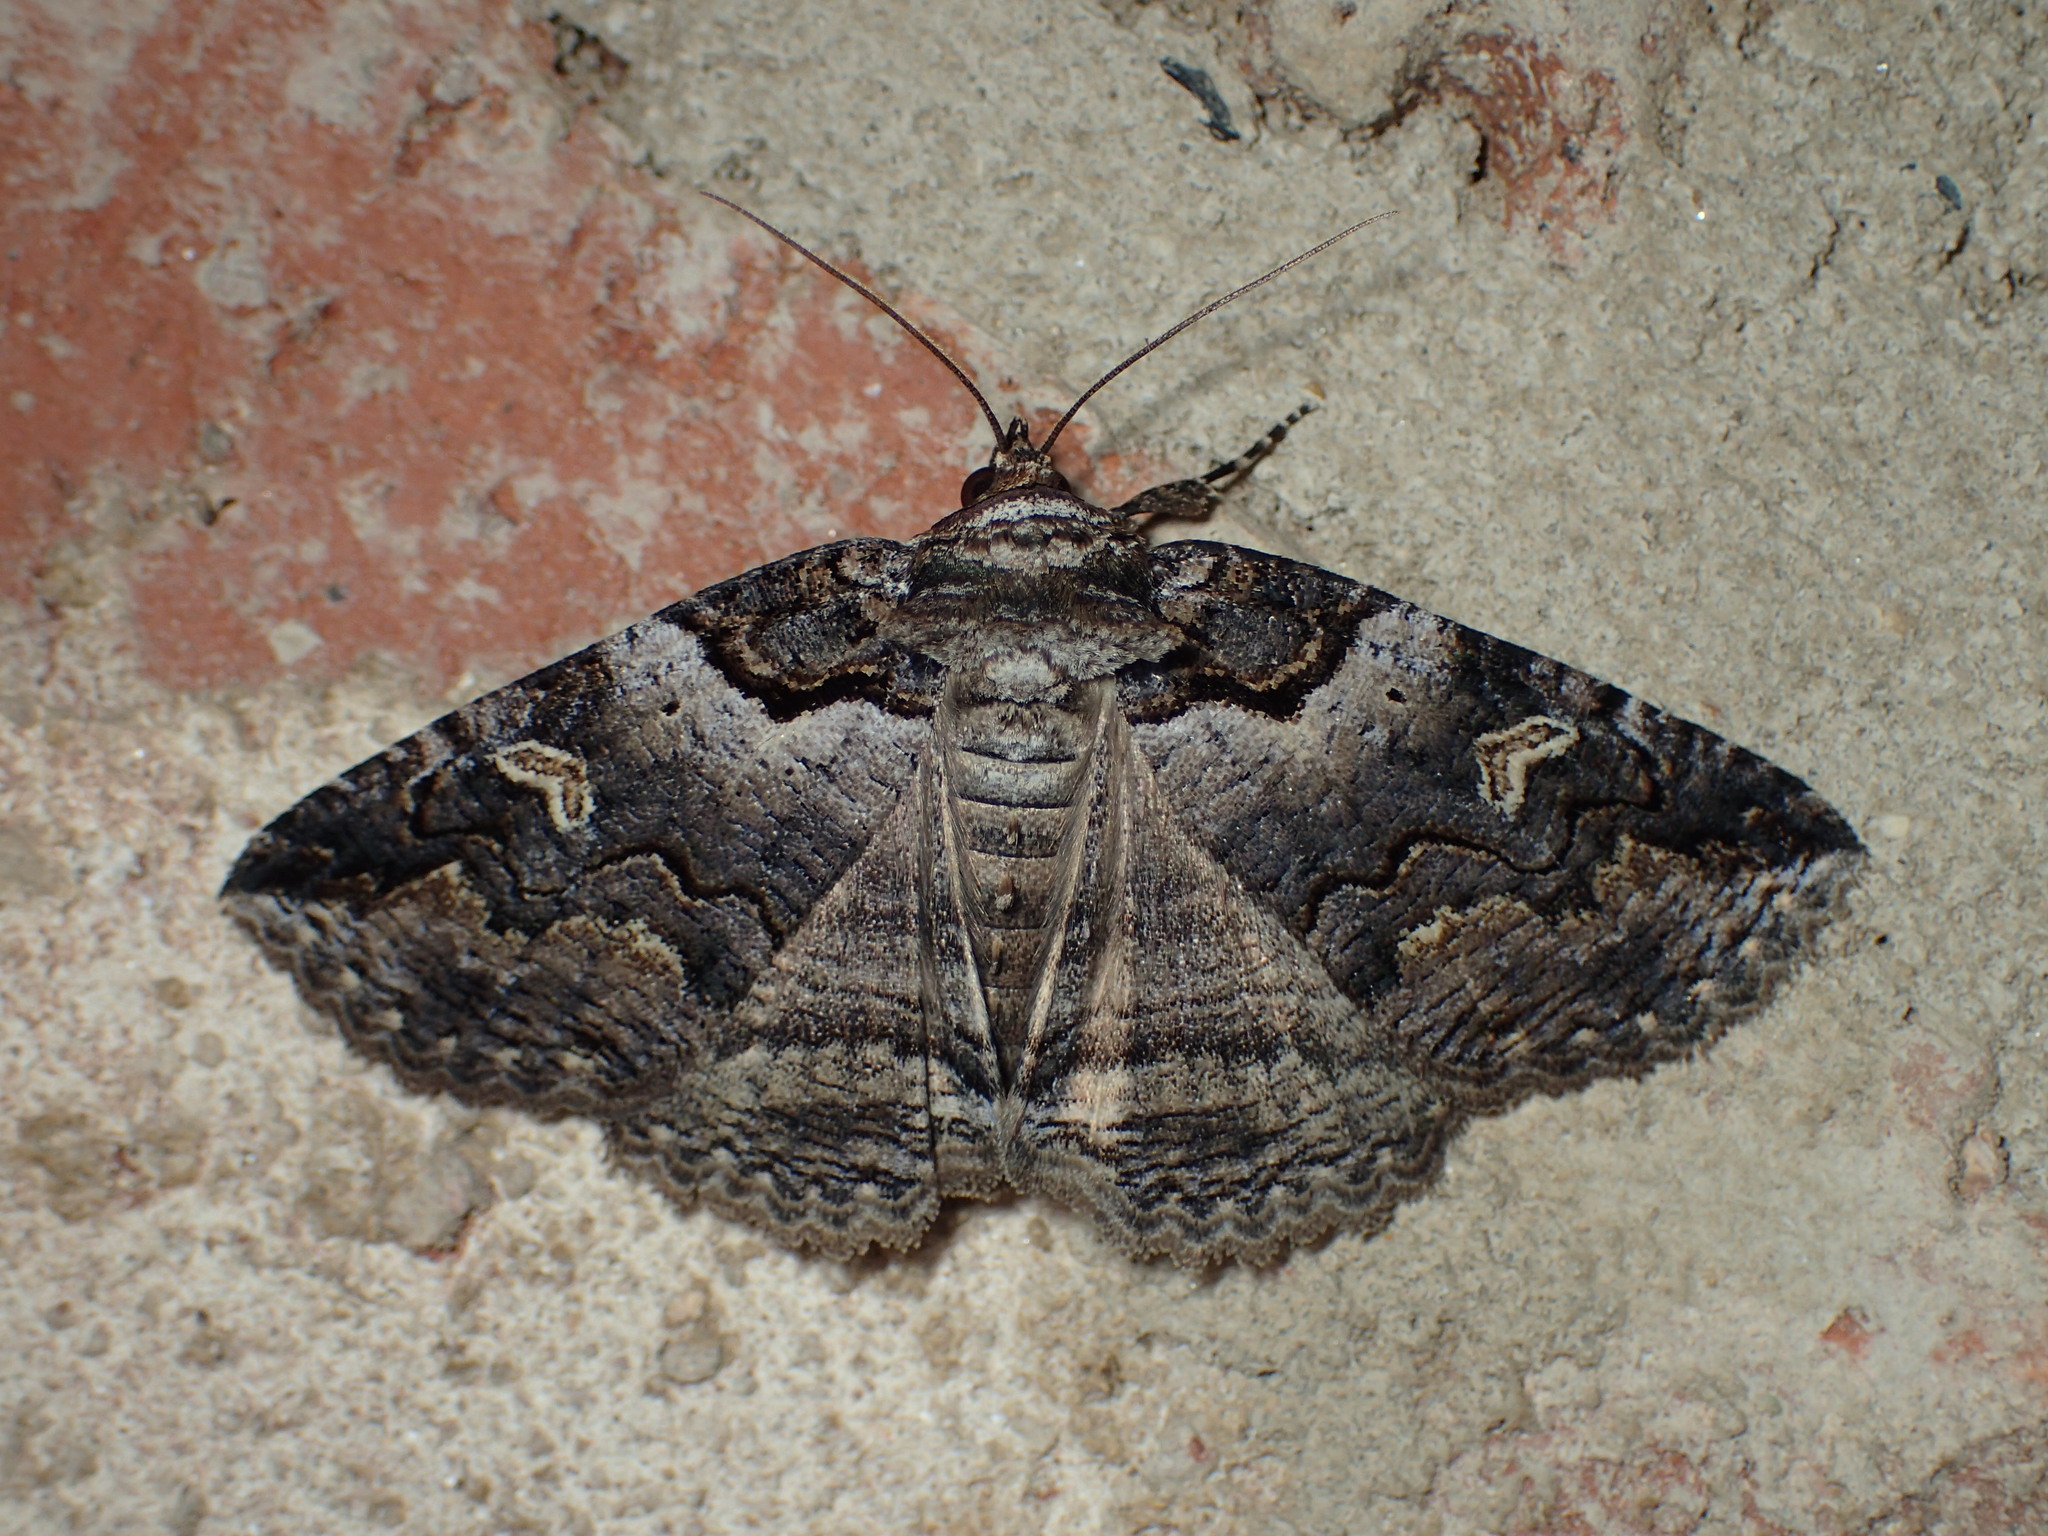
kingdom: Animalia
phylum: Arthropoda
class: Insecta
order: Lepidoptera
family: Erebidae
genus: Zale
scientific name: Zale intenta
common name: Intent zale moth
